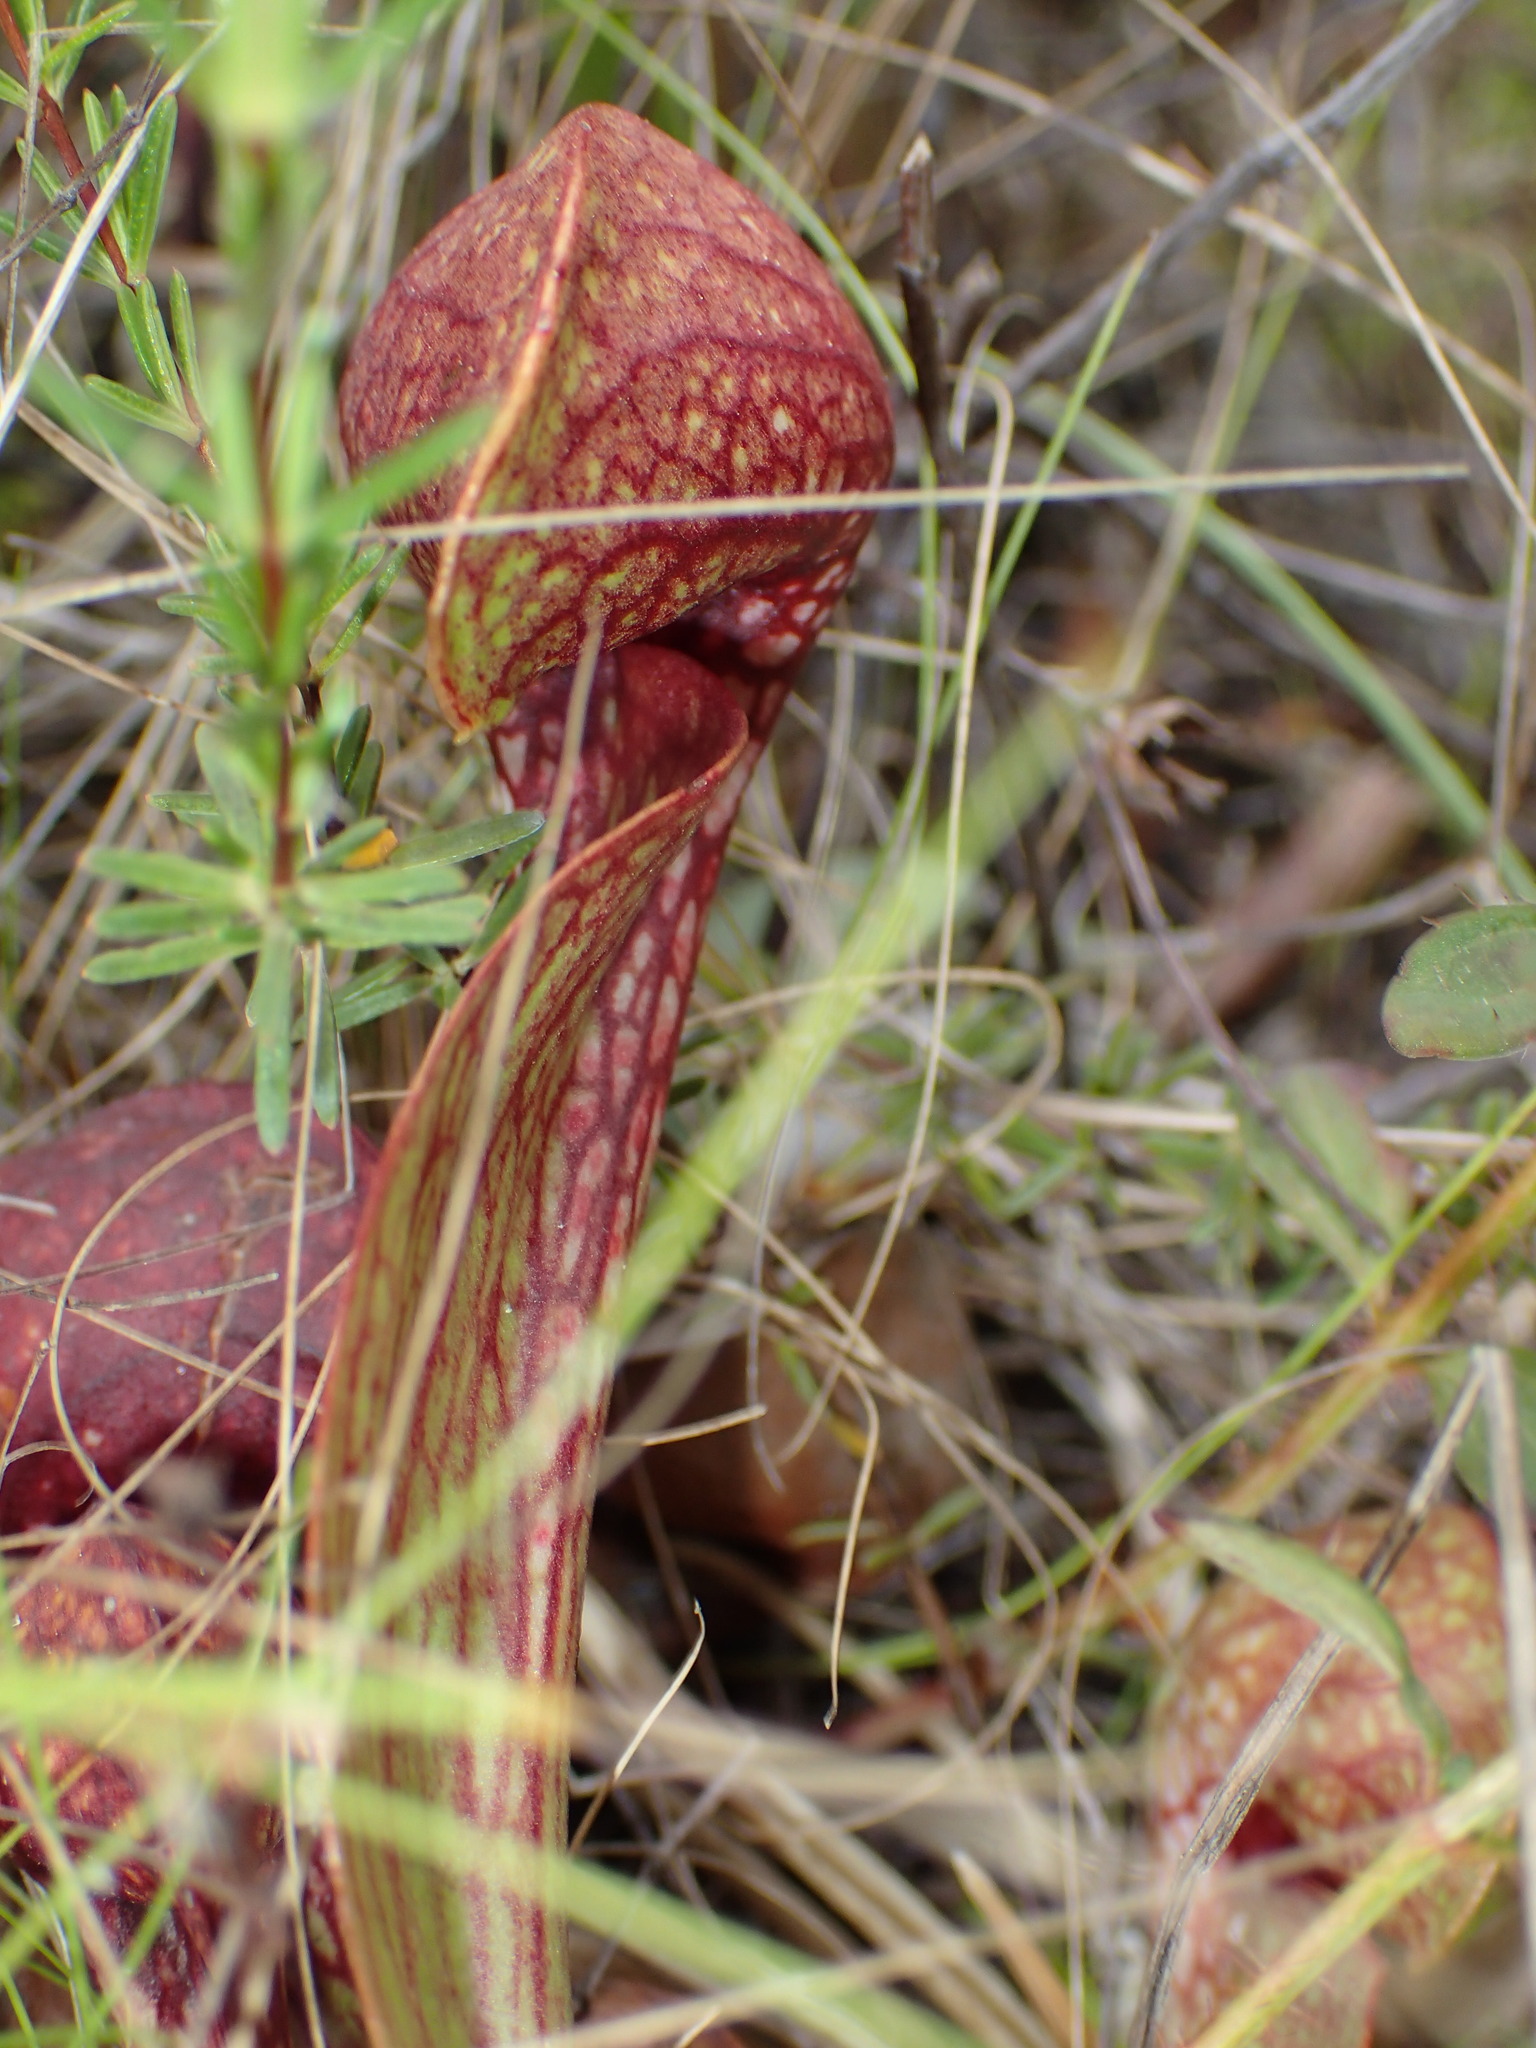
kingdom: Plantae
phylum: Tracheophyta
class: Magnoliopsida
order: Ericales
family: Sarraceniaceae
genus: Sarracenia
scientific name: Sarracenia psittacina
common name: Parrot pitcherplant
